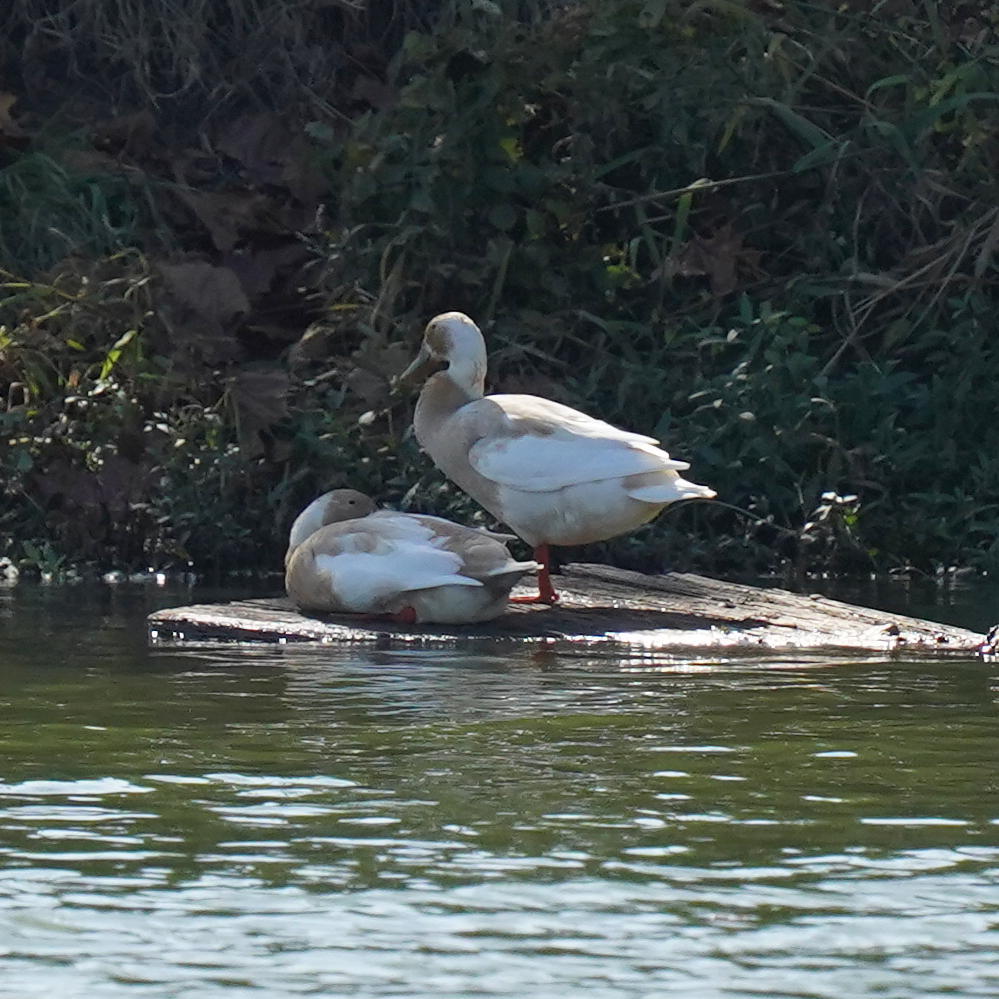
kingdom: Animalia
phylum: Chordata
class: Aves
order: Anseriformes
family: Anatidae
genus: Anas
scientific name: Anas platyrhynchos
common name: Mallard
